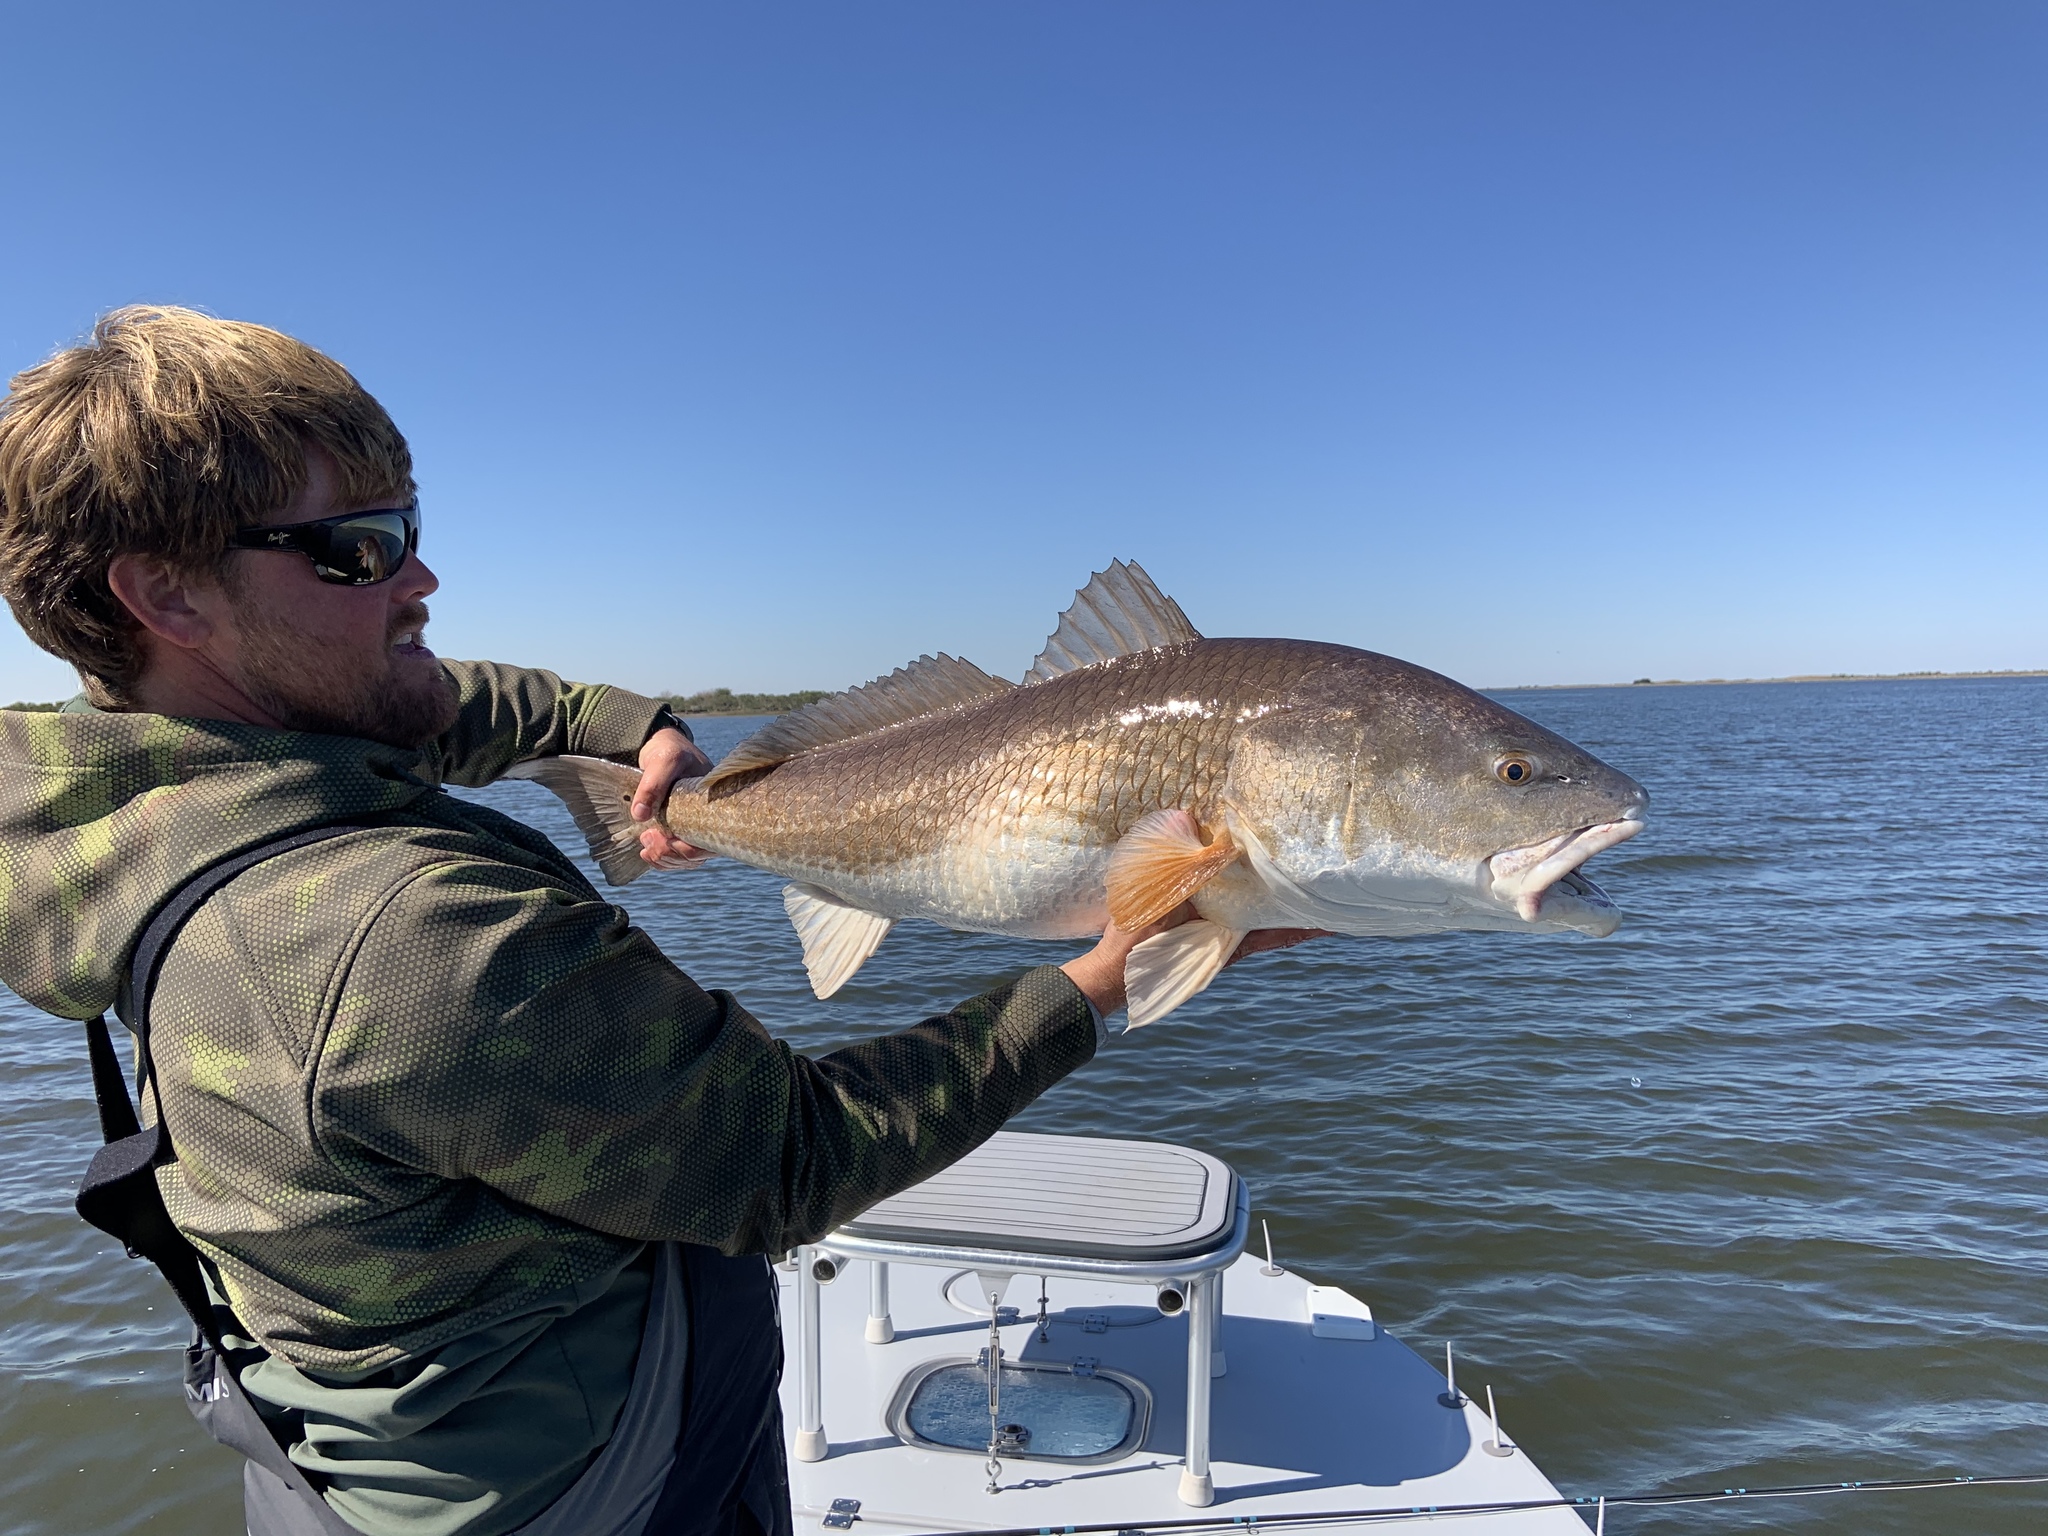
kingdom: Animalia
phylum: Chordata
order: Perciformes
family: Sciaenidae
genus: Sciaenops
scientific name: Sciaenops ocellatus
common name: Red drum
